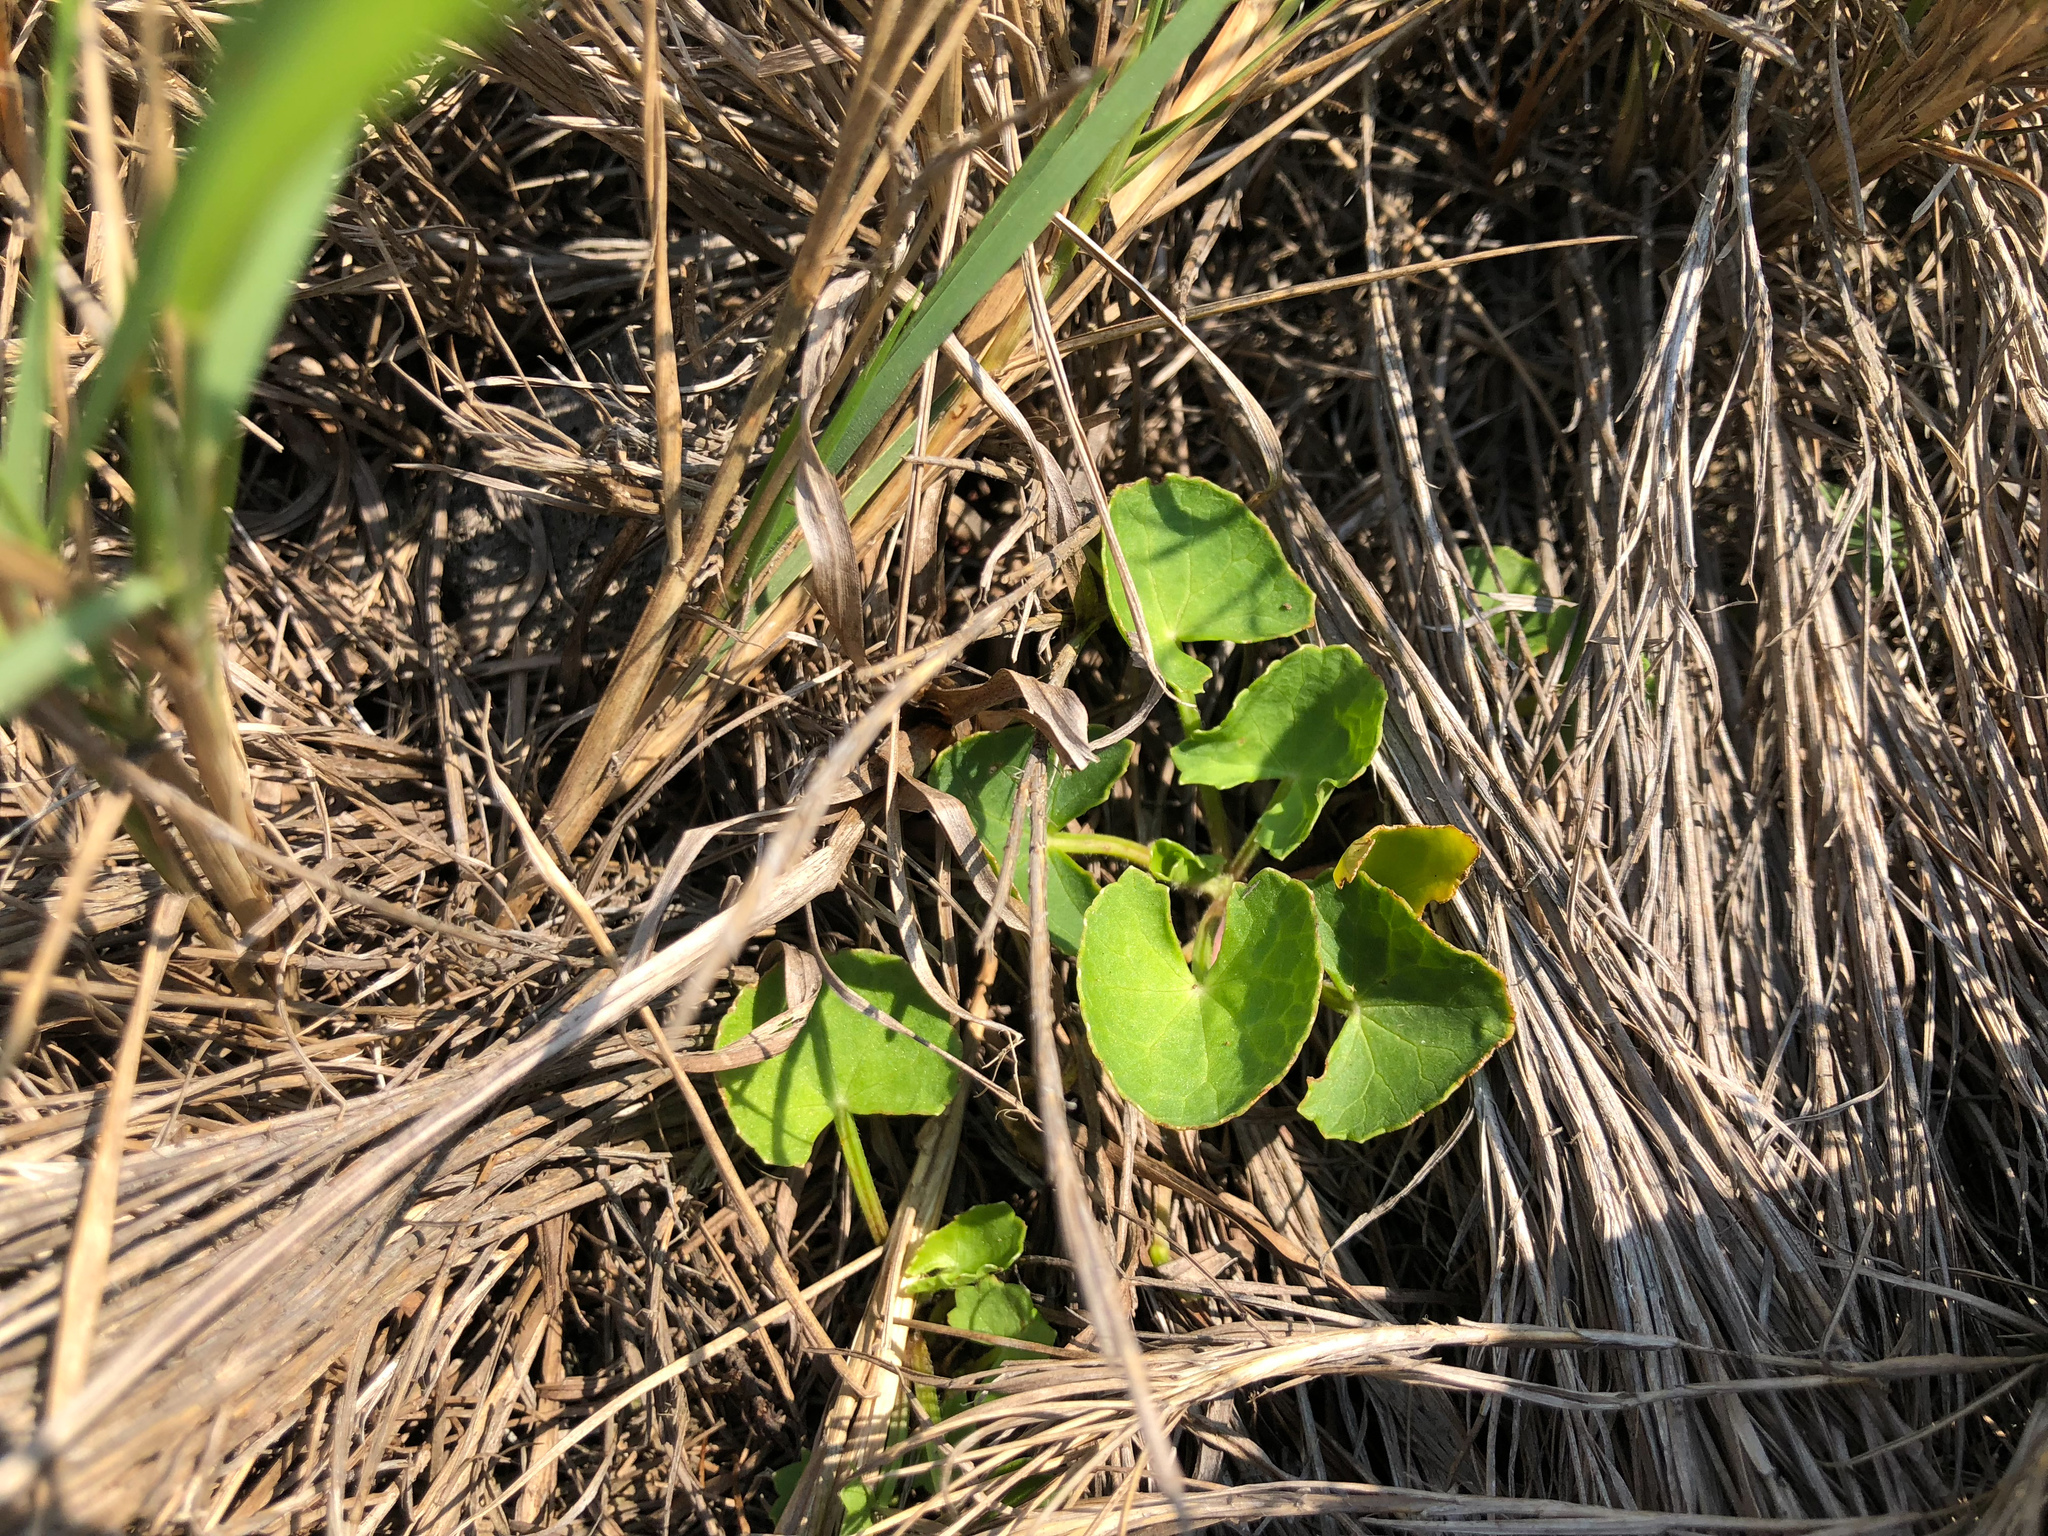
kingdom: Plantae
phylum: Tracheophyta
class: Magnoliopsida
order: Apiales
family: Apiaceae
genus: Centella
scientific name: Centella asiatica
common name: Spadeleaf
